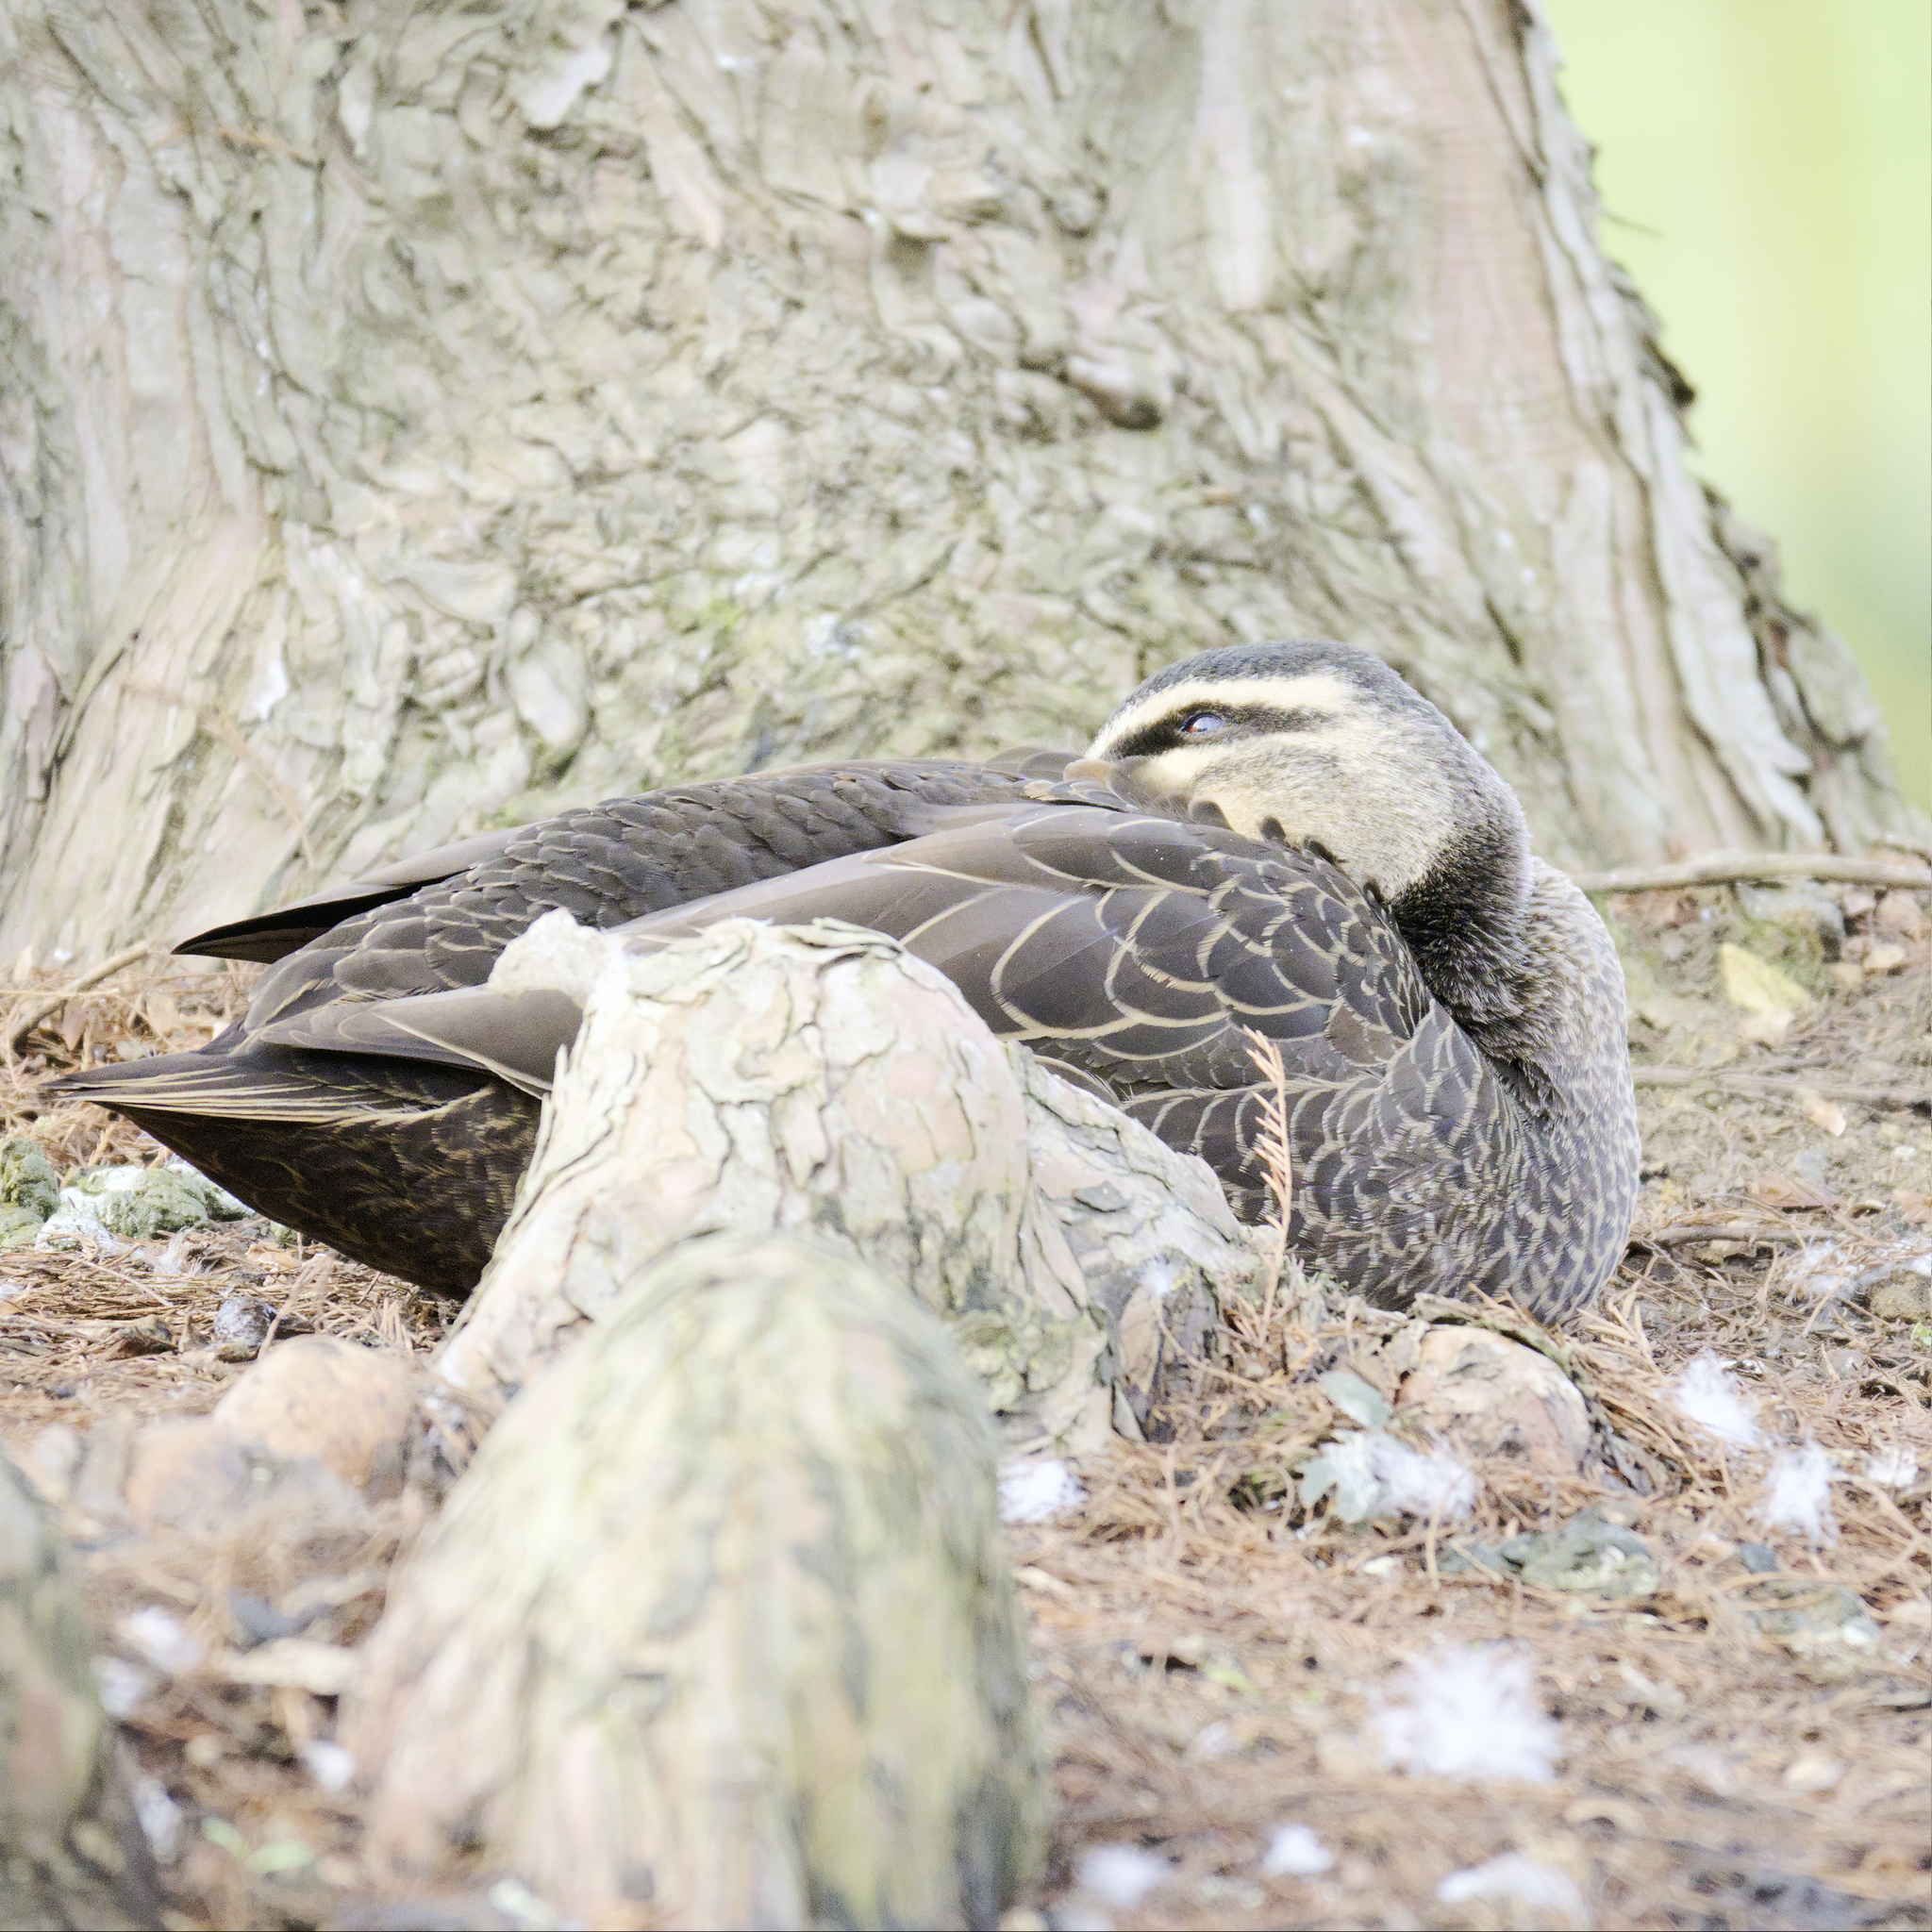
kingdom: Animalia
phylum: Chordata
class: Aves
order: Anseriformes
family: Anatidae
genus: Anas
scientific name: Anas superciliosa
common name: Pacific black duck
